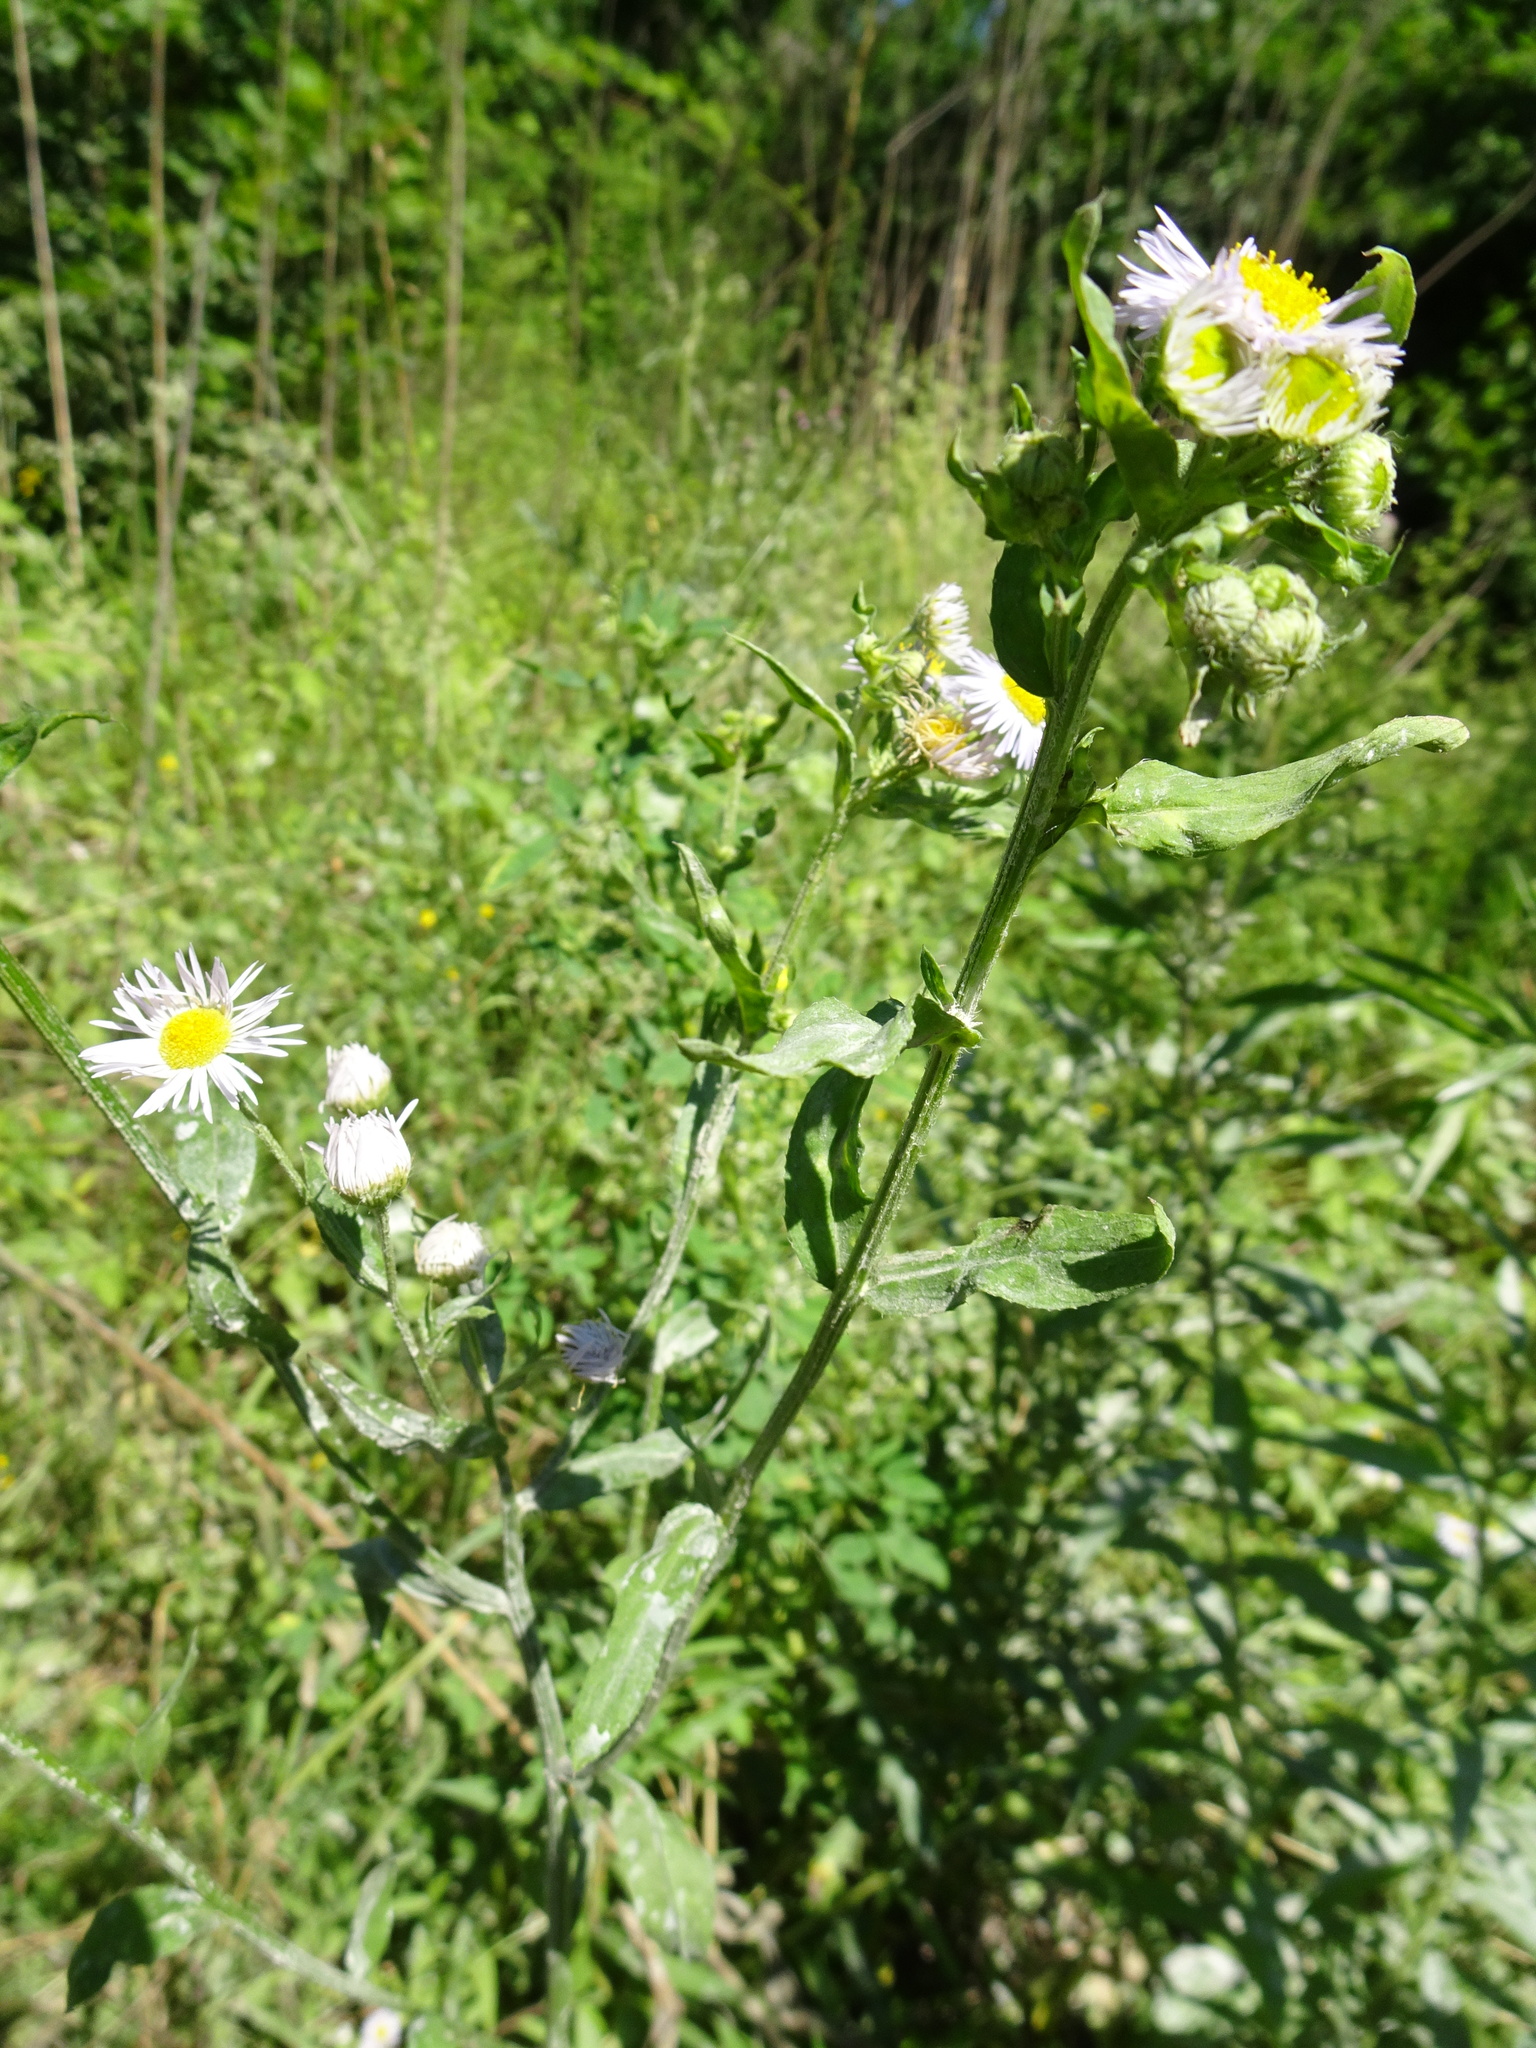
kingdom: Plantae
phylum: Tracheophyta
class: Magnoliopsida
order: Asterales
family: Asteraceae
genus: Erigeron
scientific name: Erigeron annuus
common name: Tall fleabane
